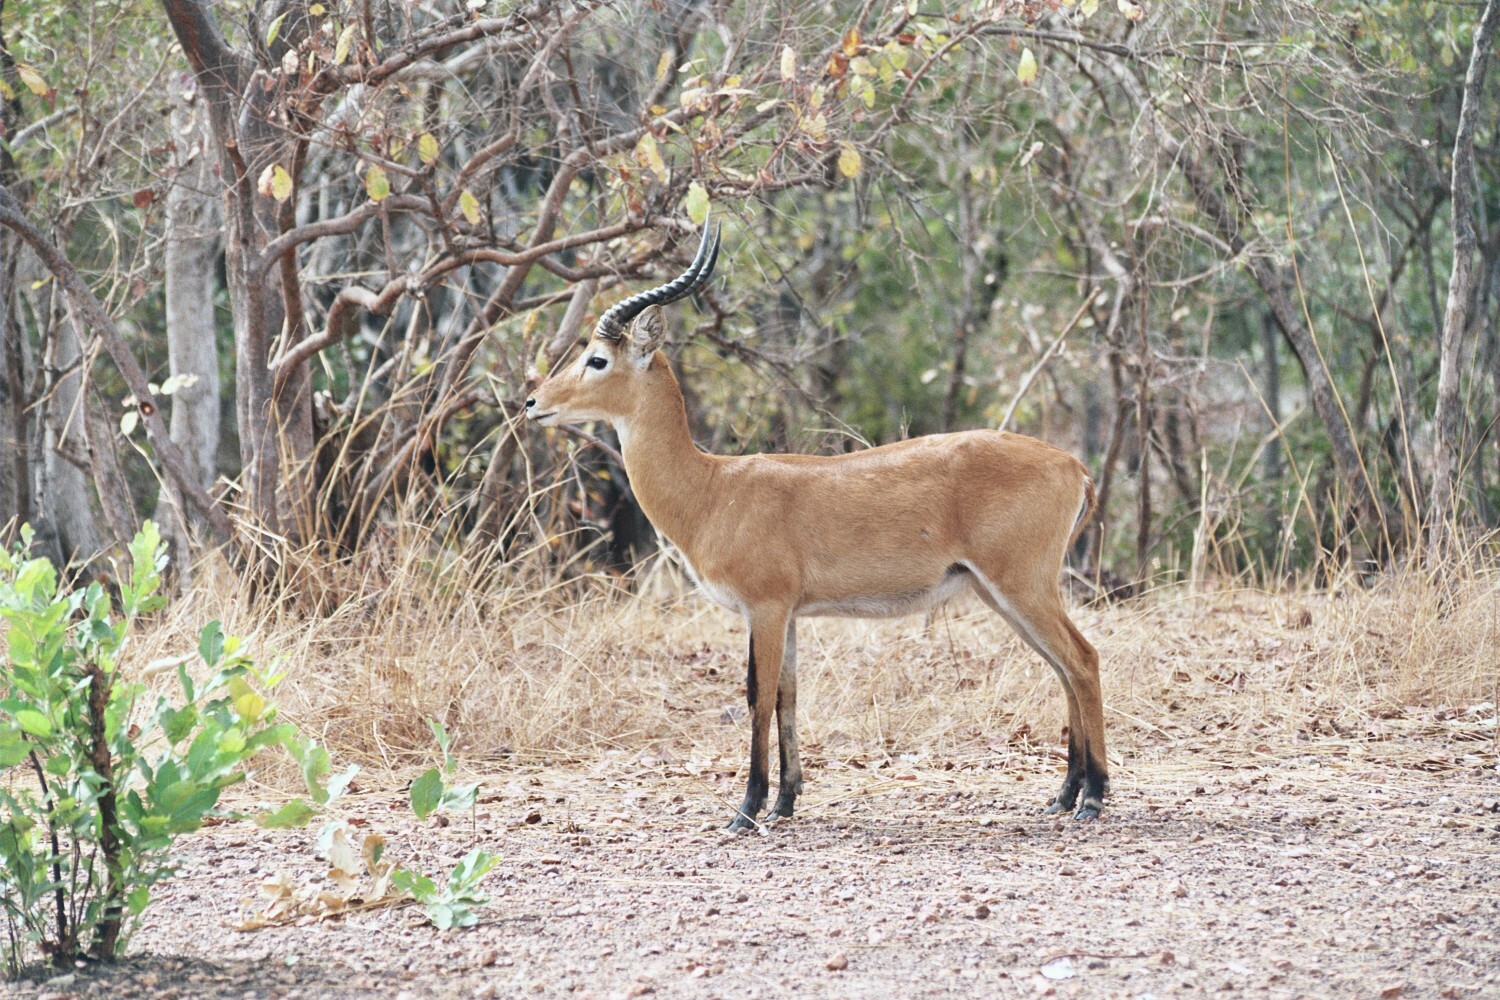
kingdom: Animalia
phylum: Chordata
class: Mammalia
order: Artiodactyla
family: Bovidae
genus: Kobus
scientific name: Kobus kob
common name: Kob
